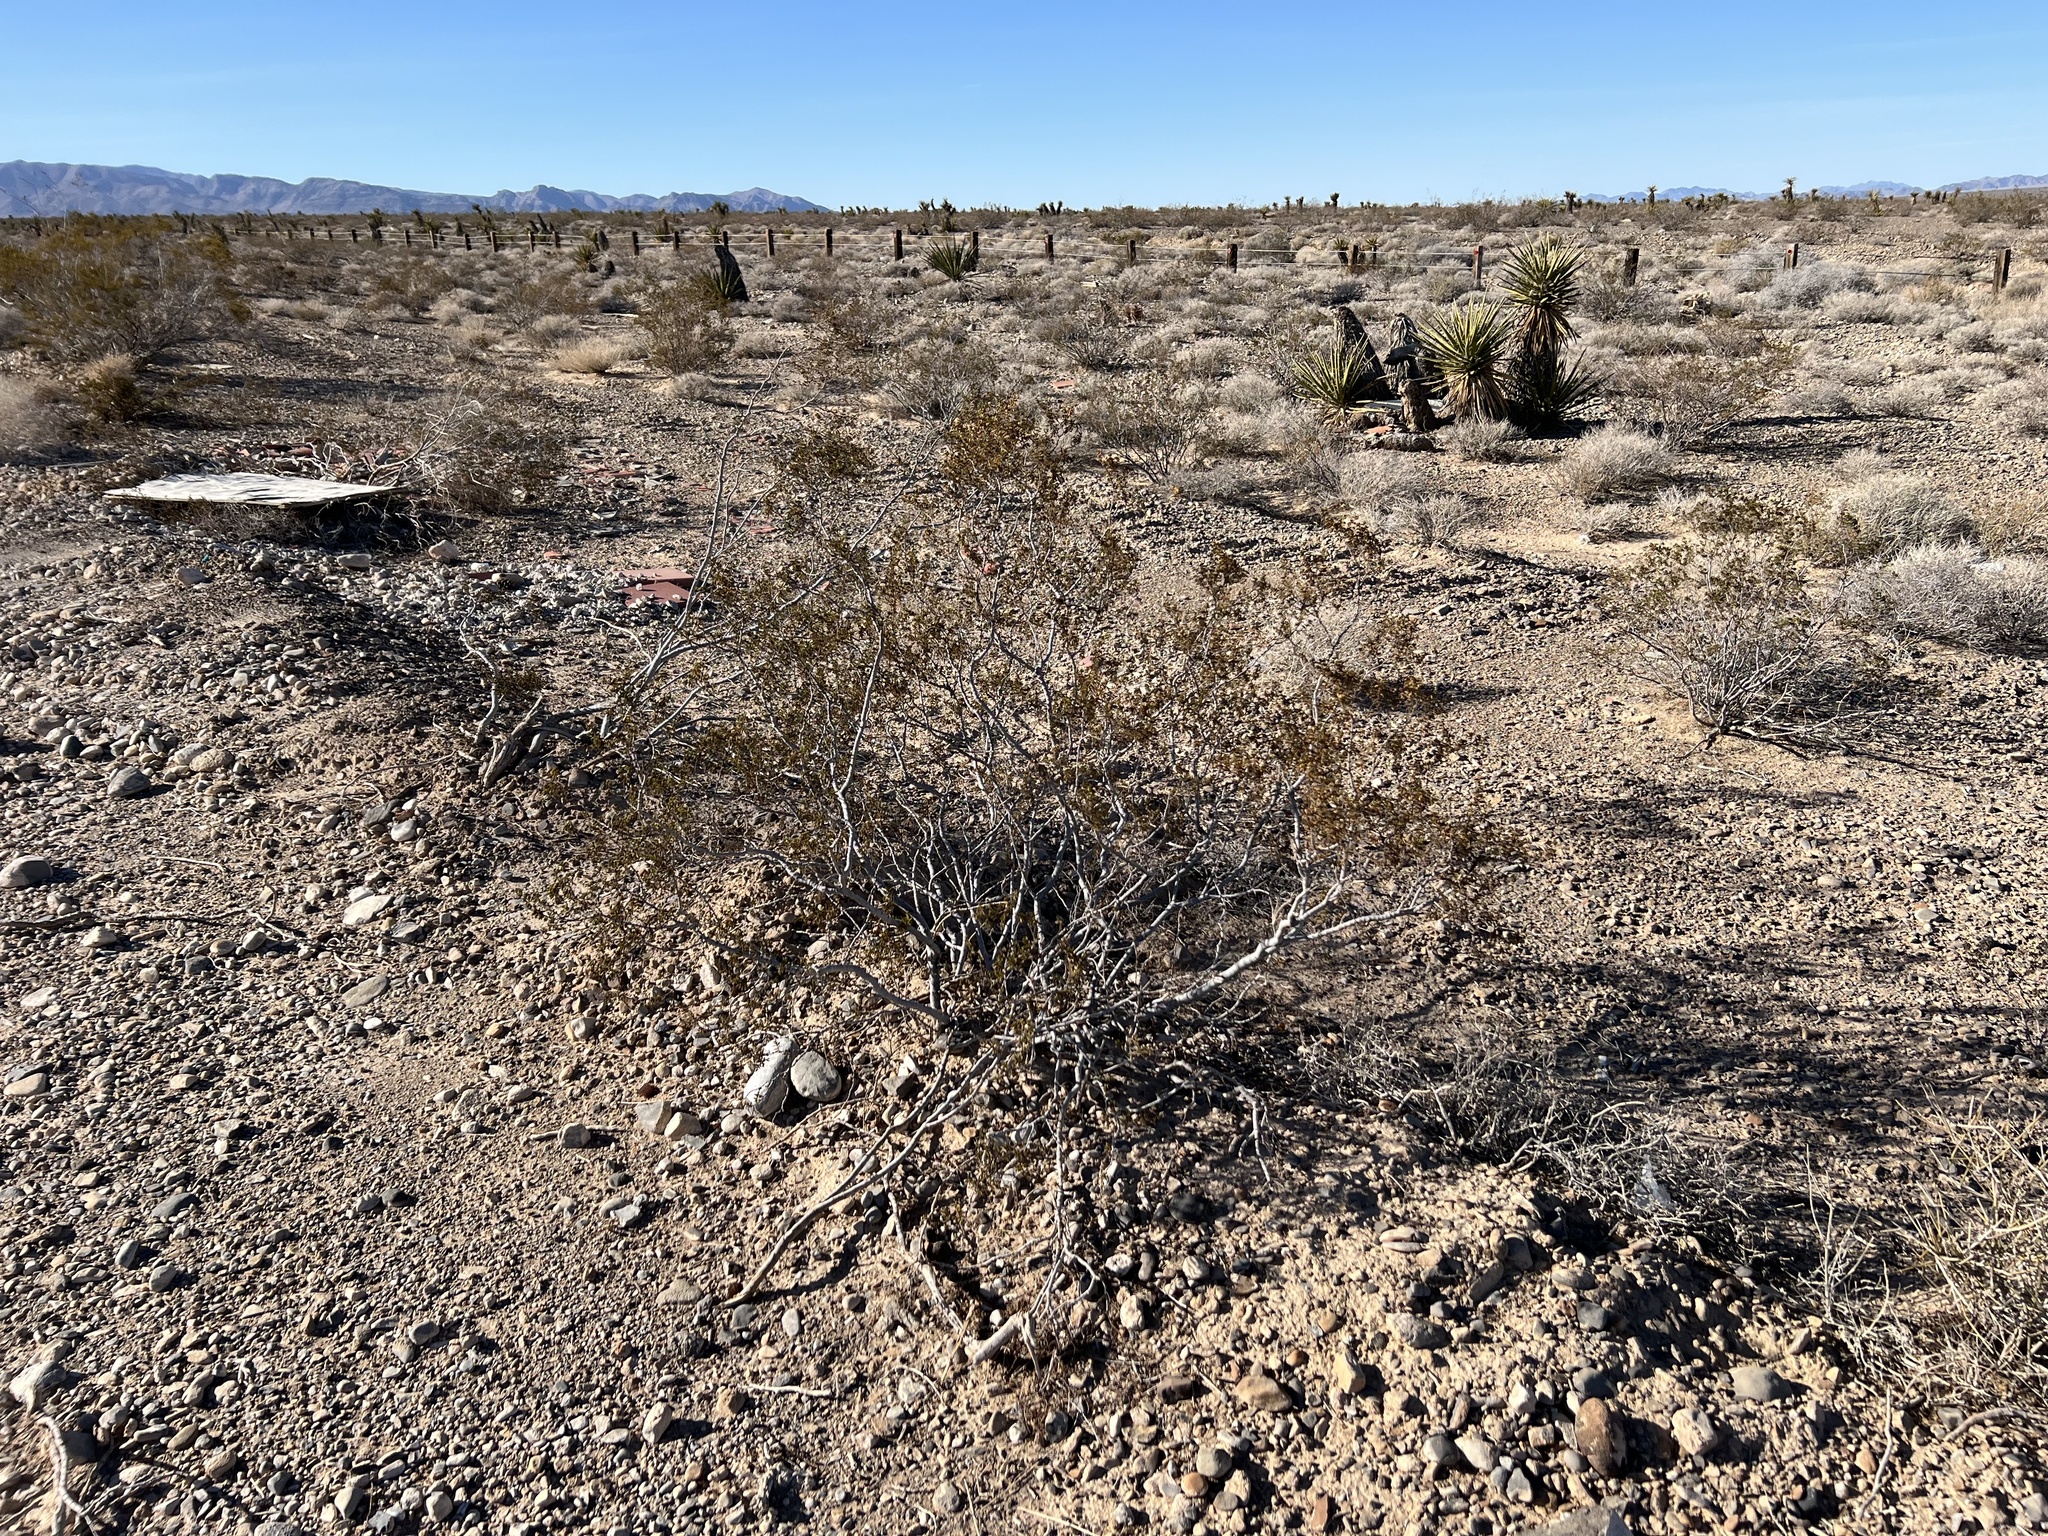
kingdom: Plantae
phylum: Tracheophyta
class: Magnoliopsida
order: Zygophyllales
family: Zygophyllaceae
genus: Larrea
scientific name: Larrea tridentata
